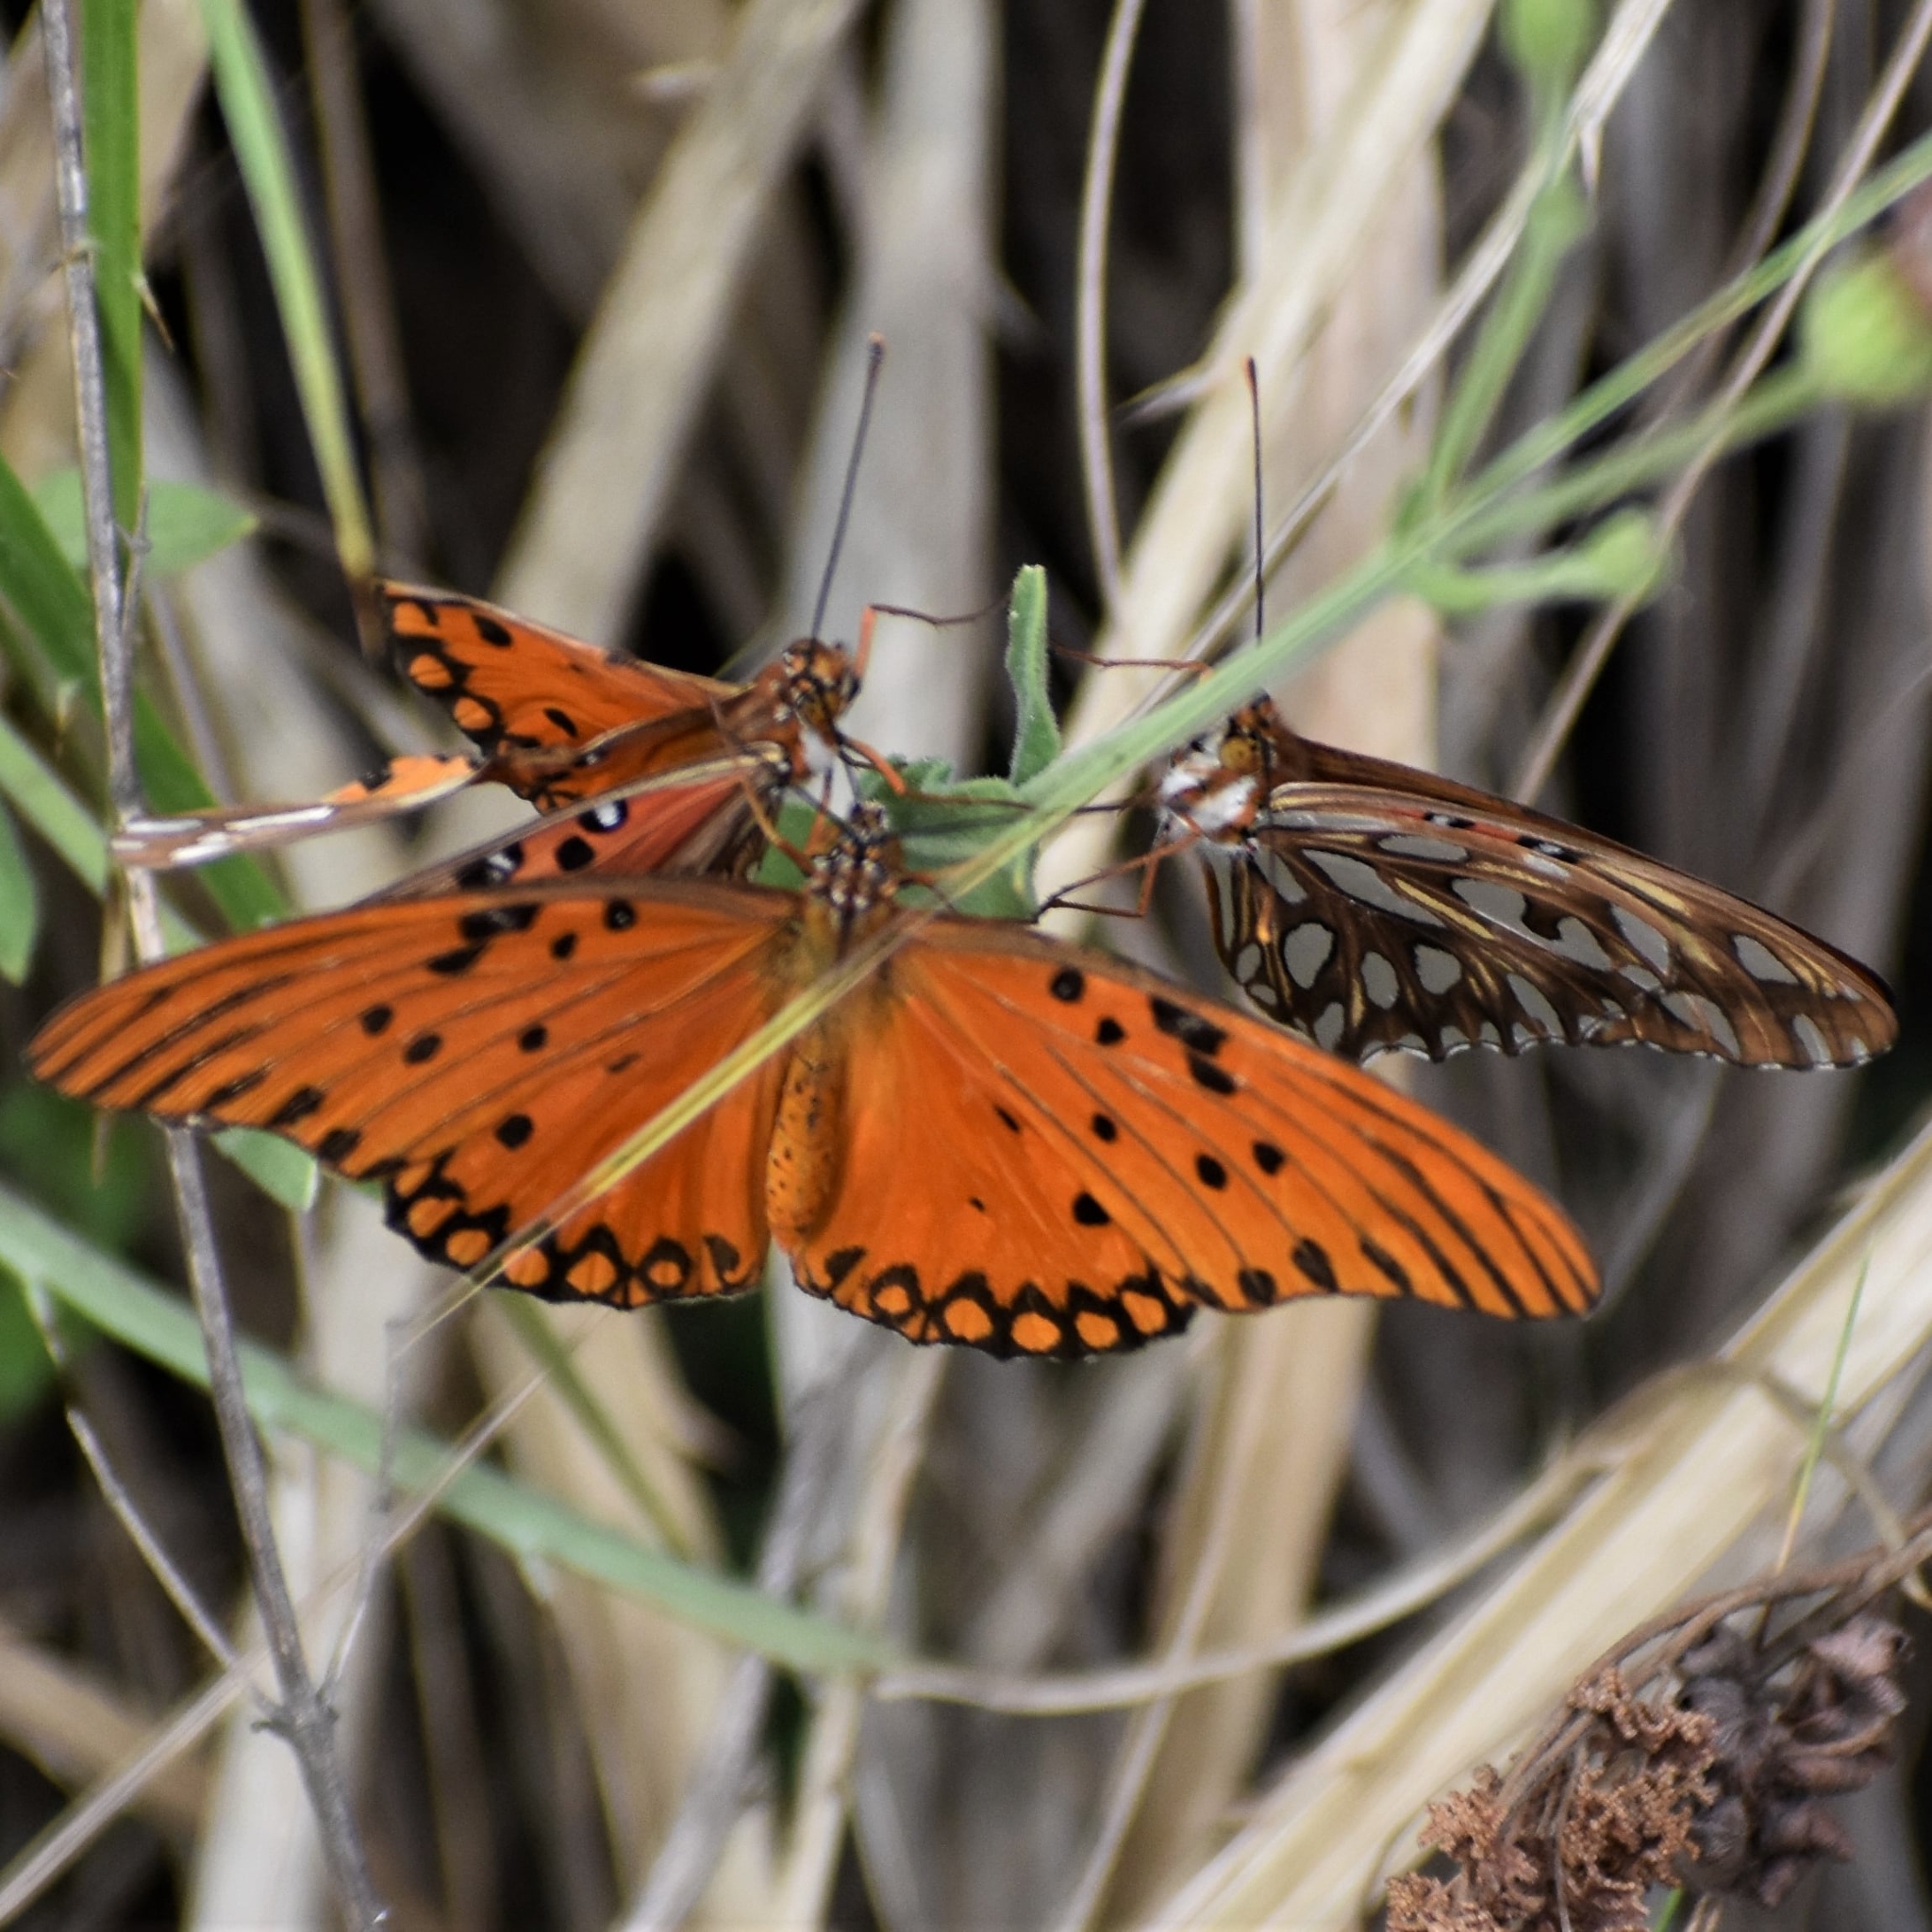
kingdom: Animalia
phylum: Arthropoda
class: Insecta
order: Lepidoptera
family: Nymphalidae
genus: Dione
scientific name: Dione vanillae
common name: Gulf fritillary
